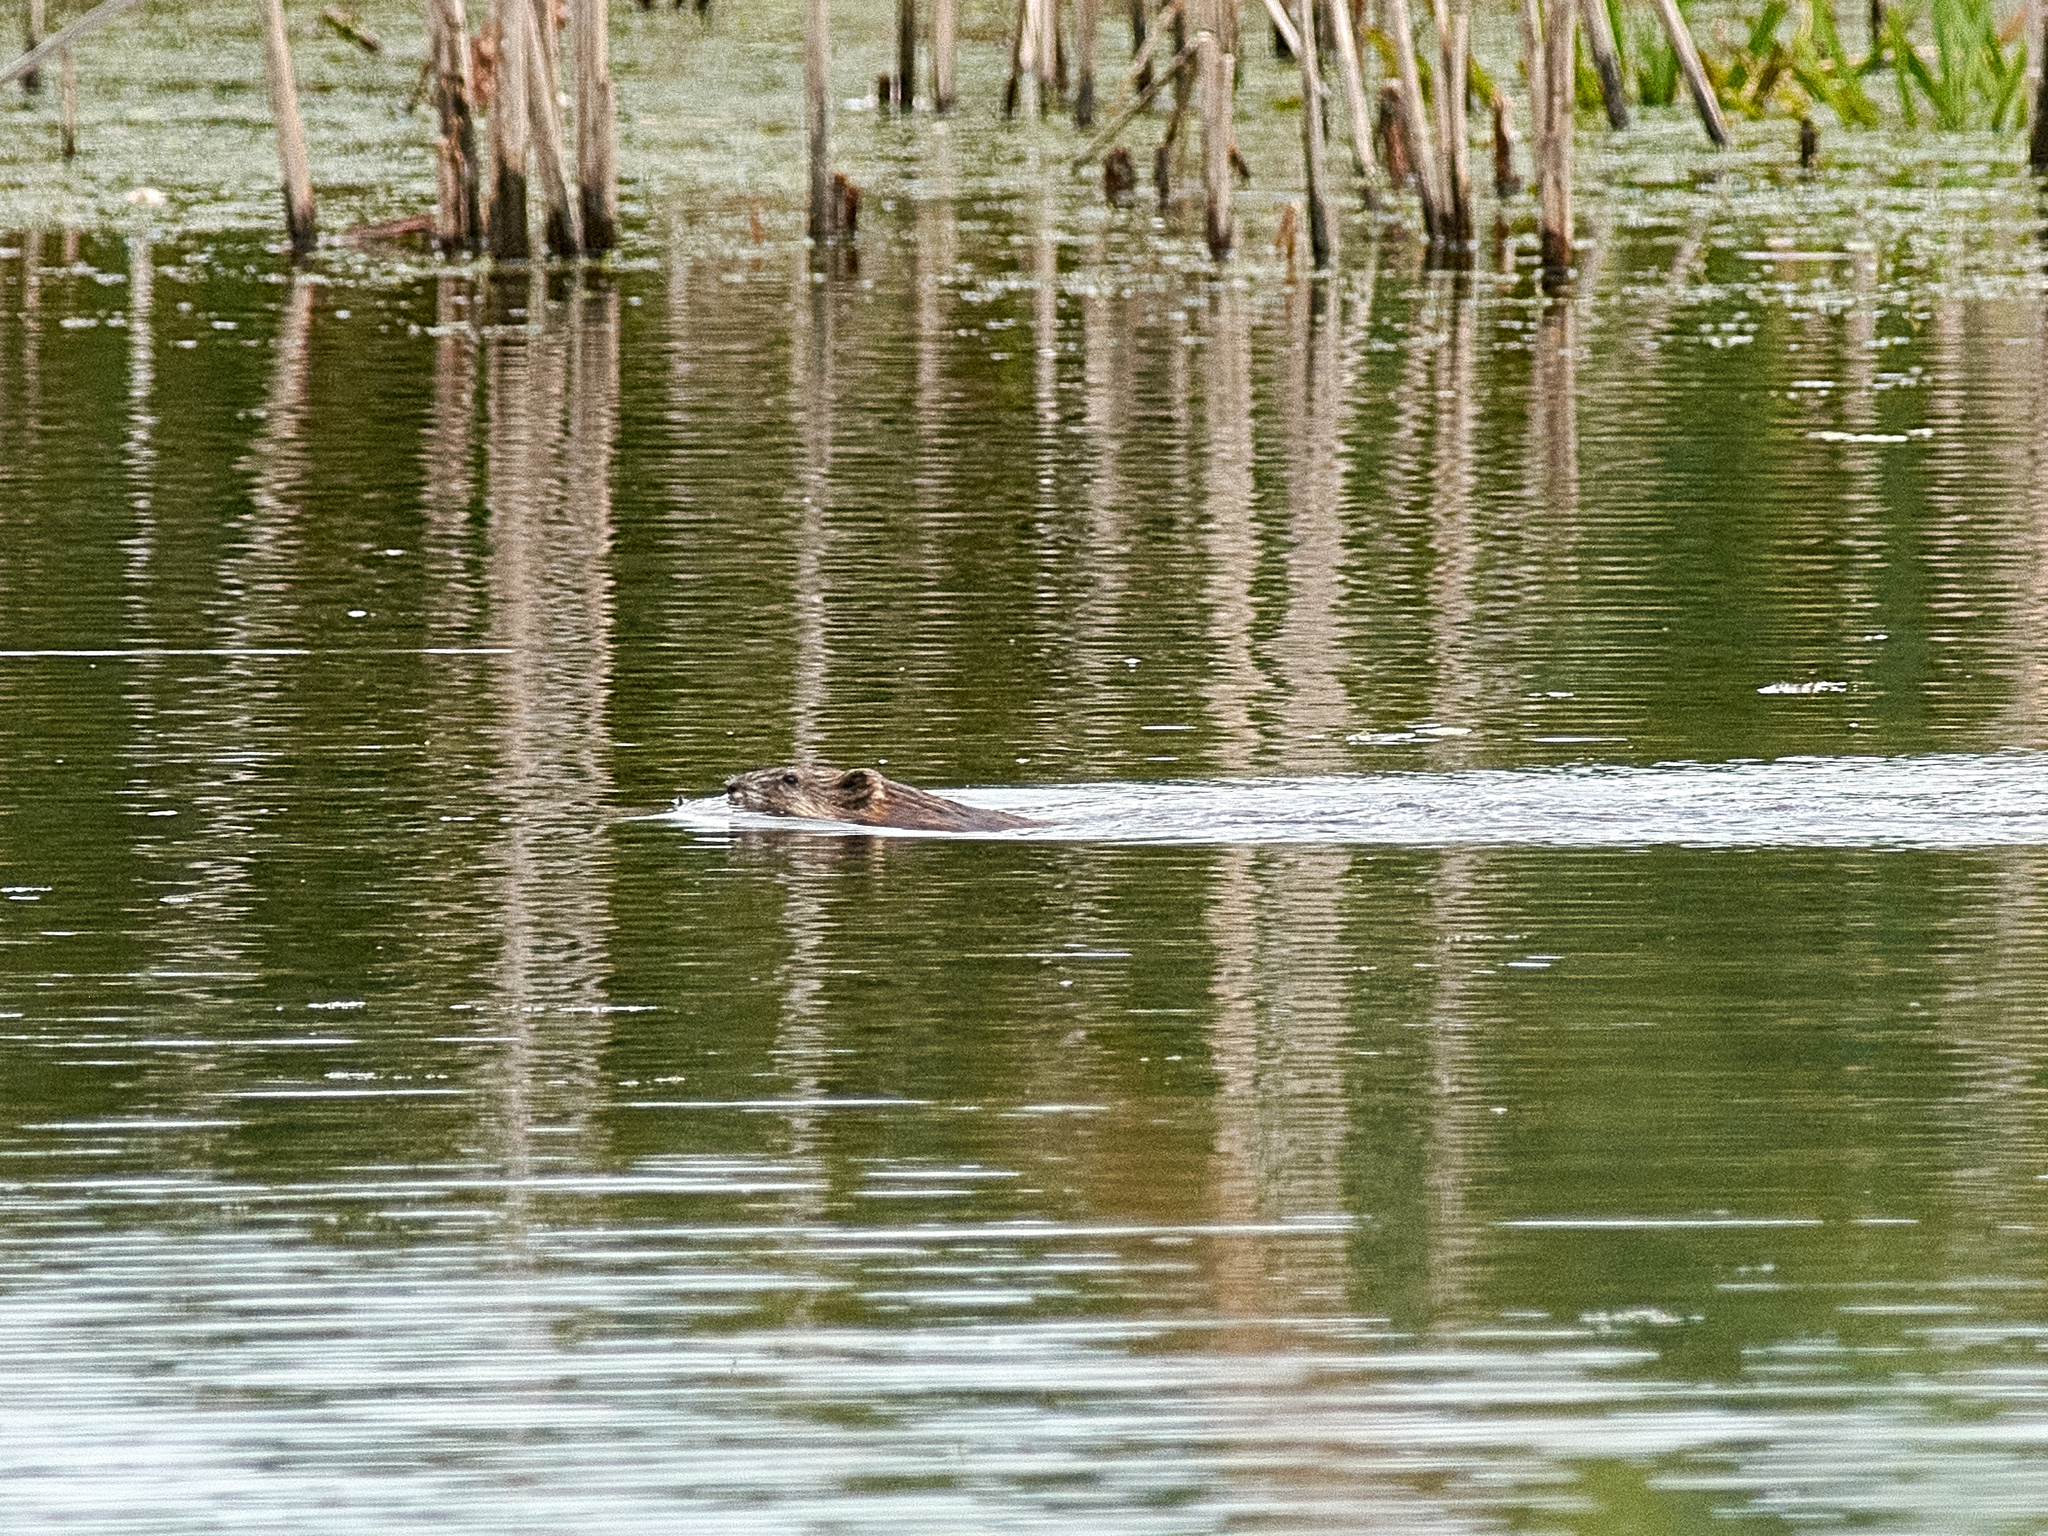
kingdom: Animalia
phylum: Chordata
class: Mammalia
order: Rodentia
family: Cricetidae
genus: Ondatra
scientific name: Ondatra zibethicus
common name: Muskrat
